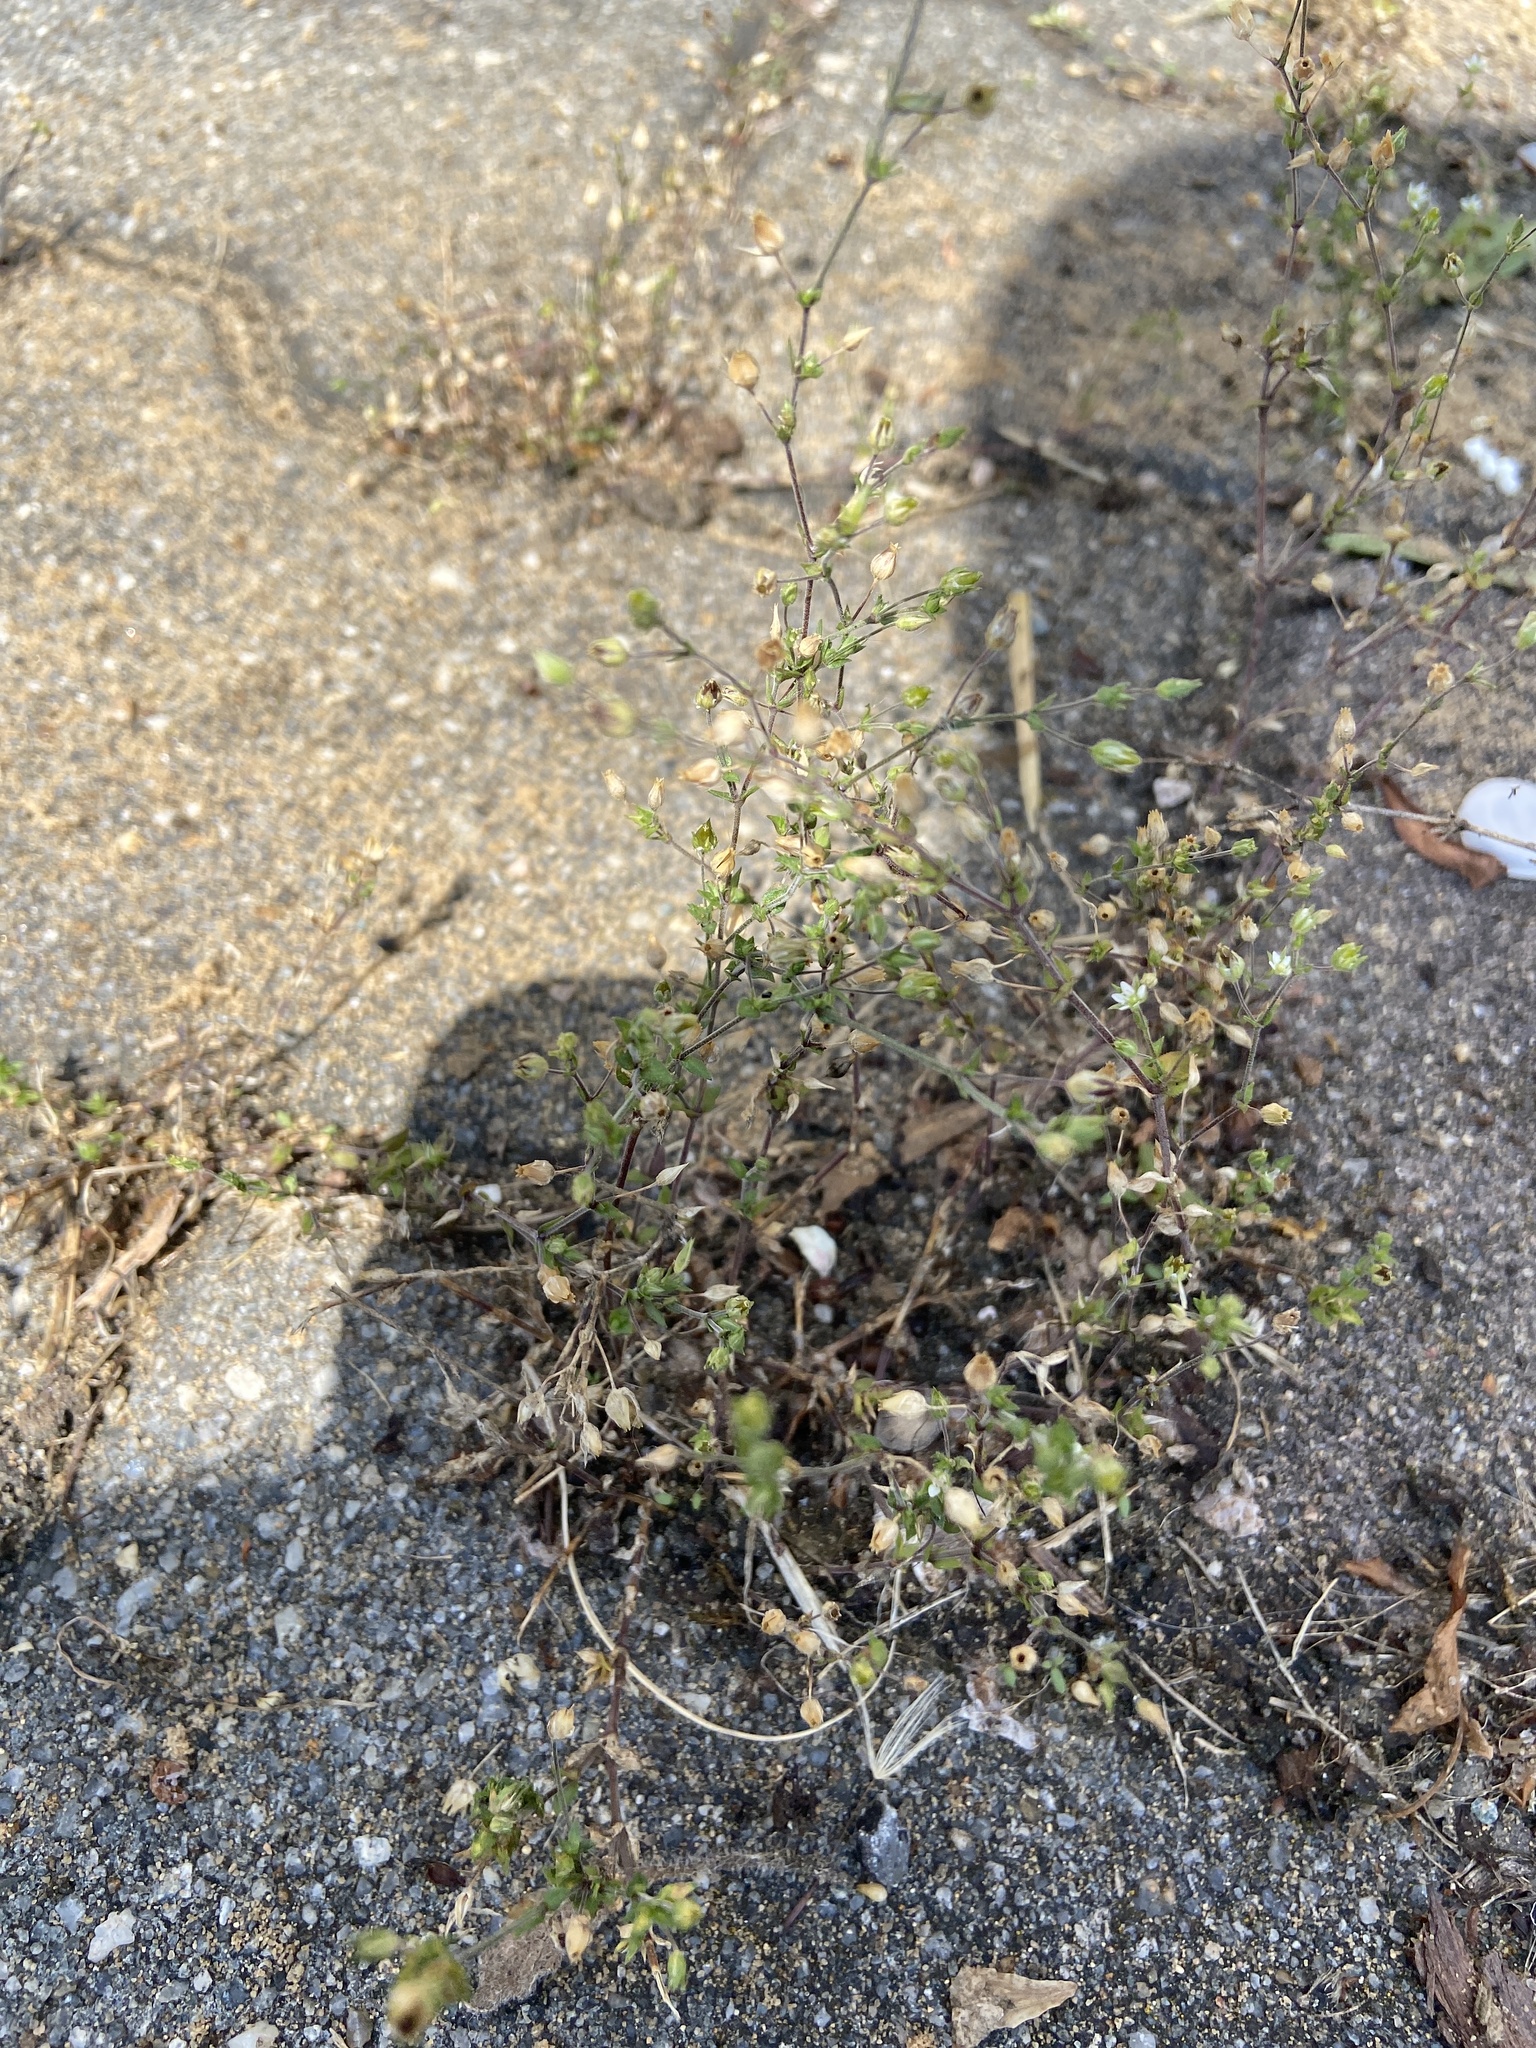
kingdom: Plantae
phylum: Tracheophyta
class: Magnoliopsida
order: Caryophyllales
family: Caryophyllaceae
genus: Arenaria
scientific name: Arenaria serpyllifolia
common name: Thyme-leaved sandwort
